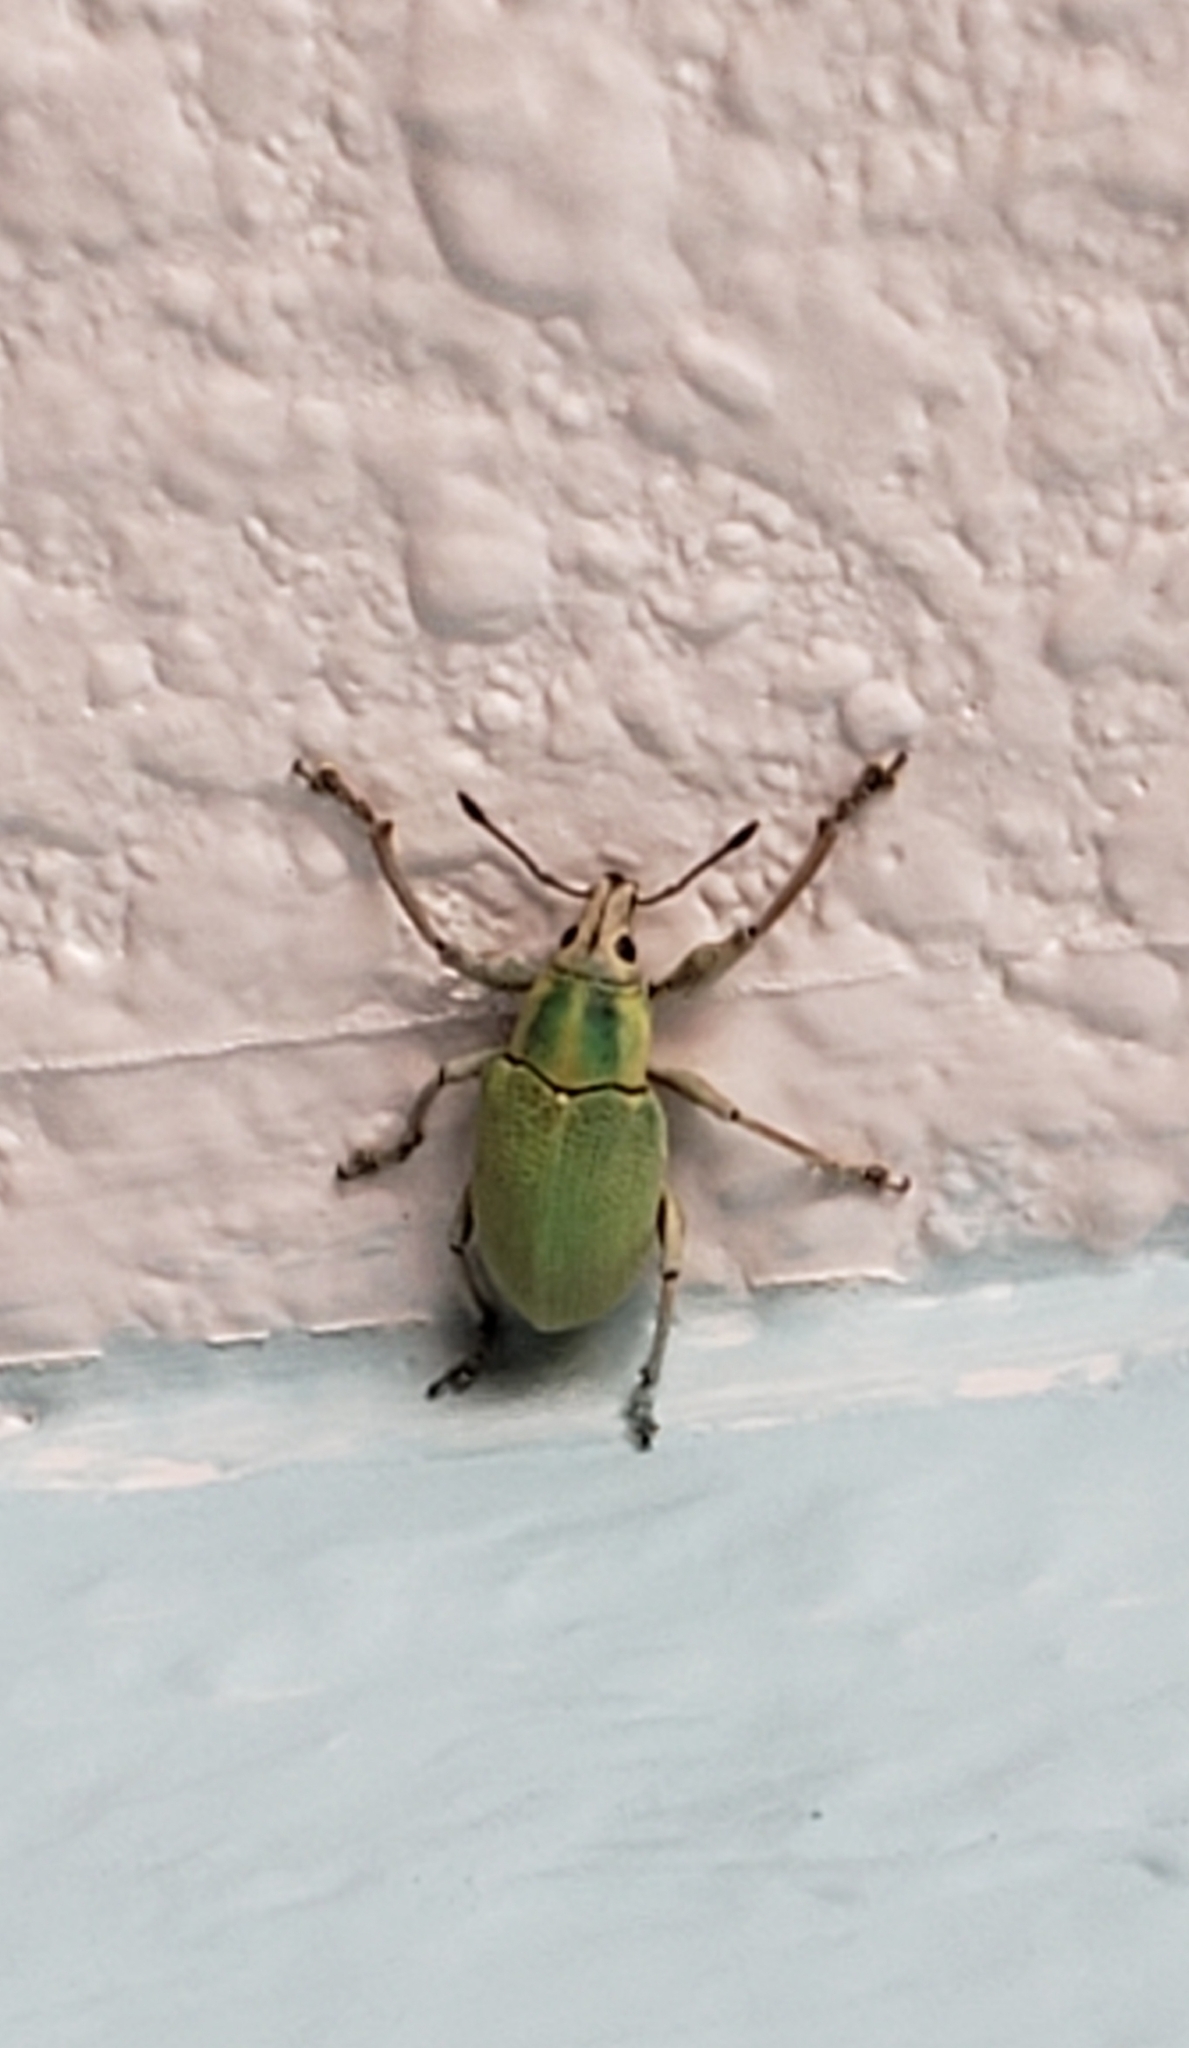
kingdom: Animalia
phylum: Arthropoda
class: Insecta
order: Coleoptera
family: Curculionidae
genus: Pachnaeus
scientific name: Pachnaeus litus
